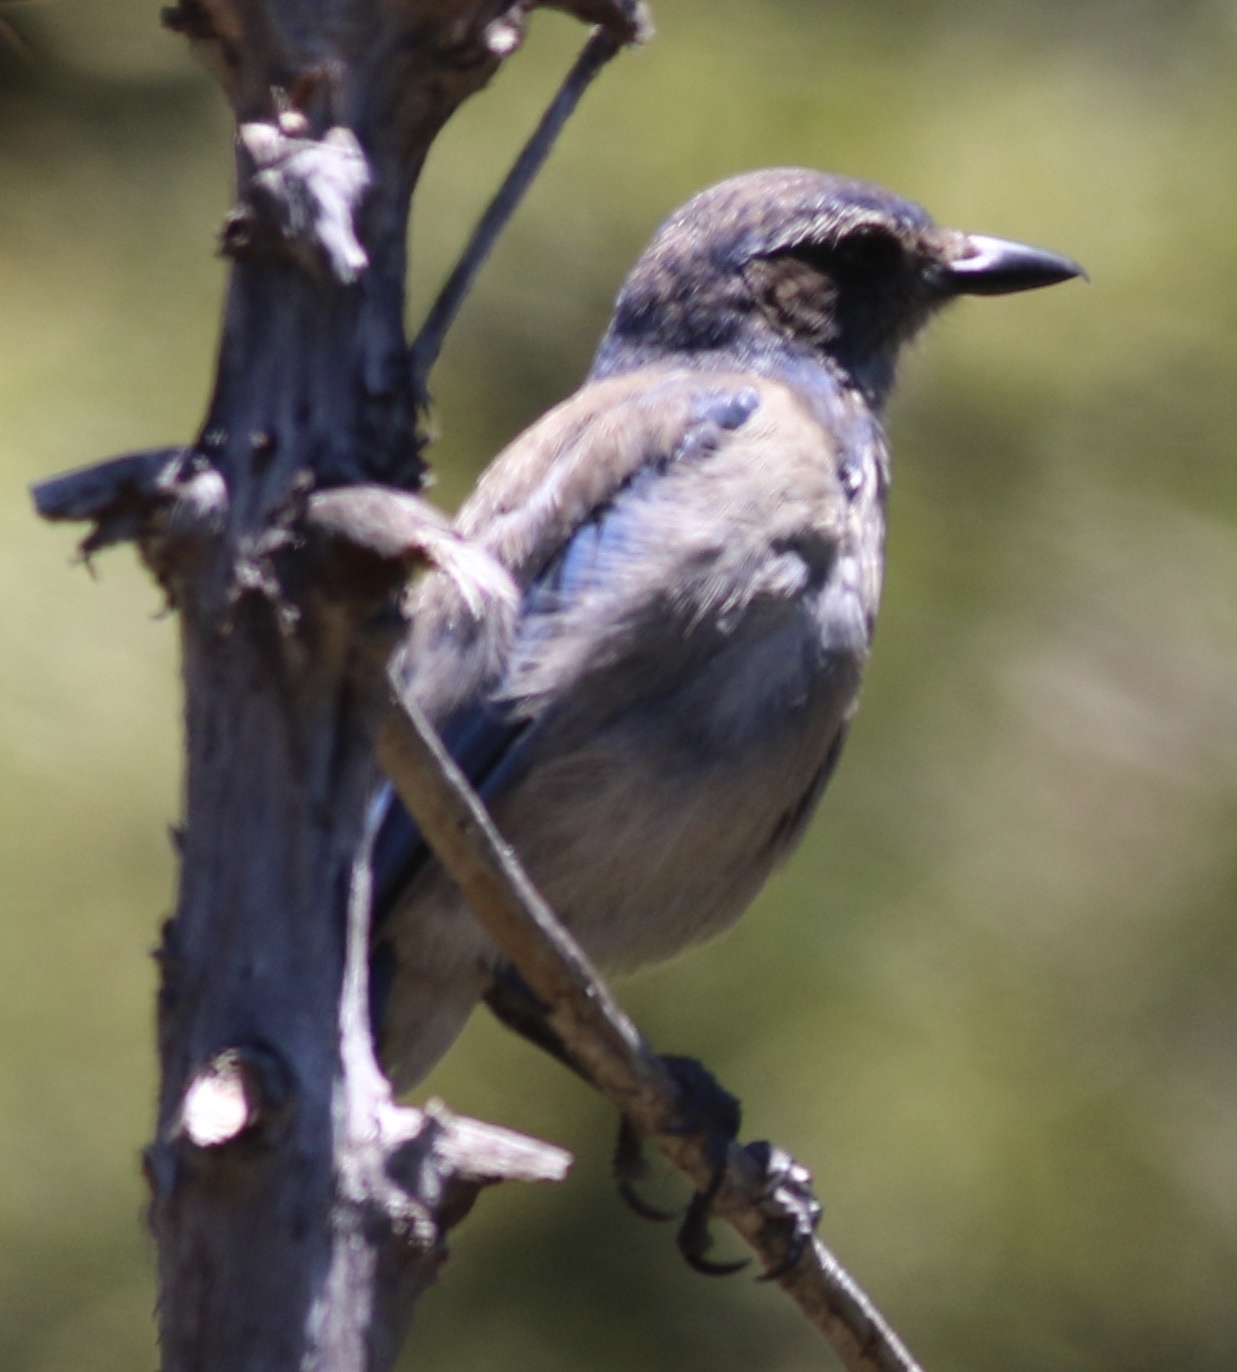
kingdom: Animalia
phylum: Chordata
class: Aves
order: Passeriformes
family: Corvidae
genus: Aphelocoma
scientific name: Aphelocoma californica
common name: California scrub-jay
